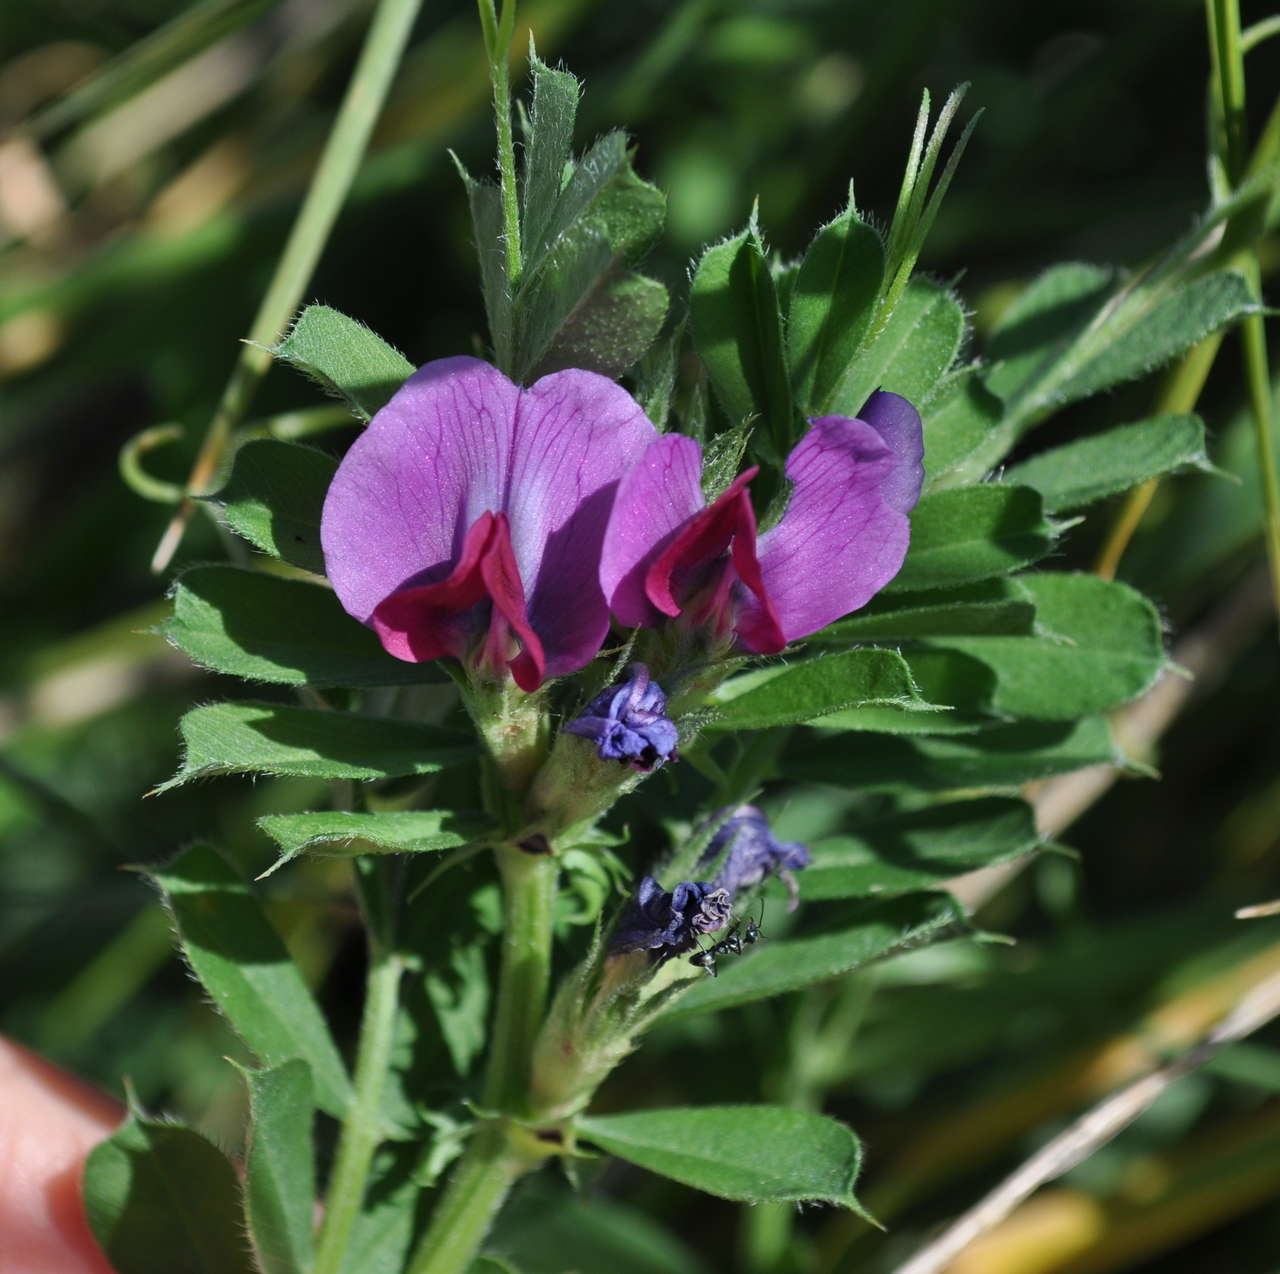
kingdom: Plantae
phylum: Tracheophyta
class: Magnoliopsida
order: Fabales
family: Fabaceae
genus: Vicia
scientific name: Vicia sativa
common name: Garden vetch
